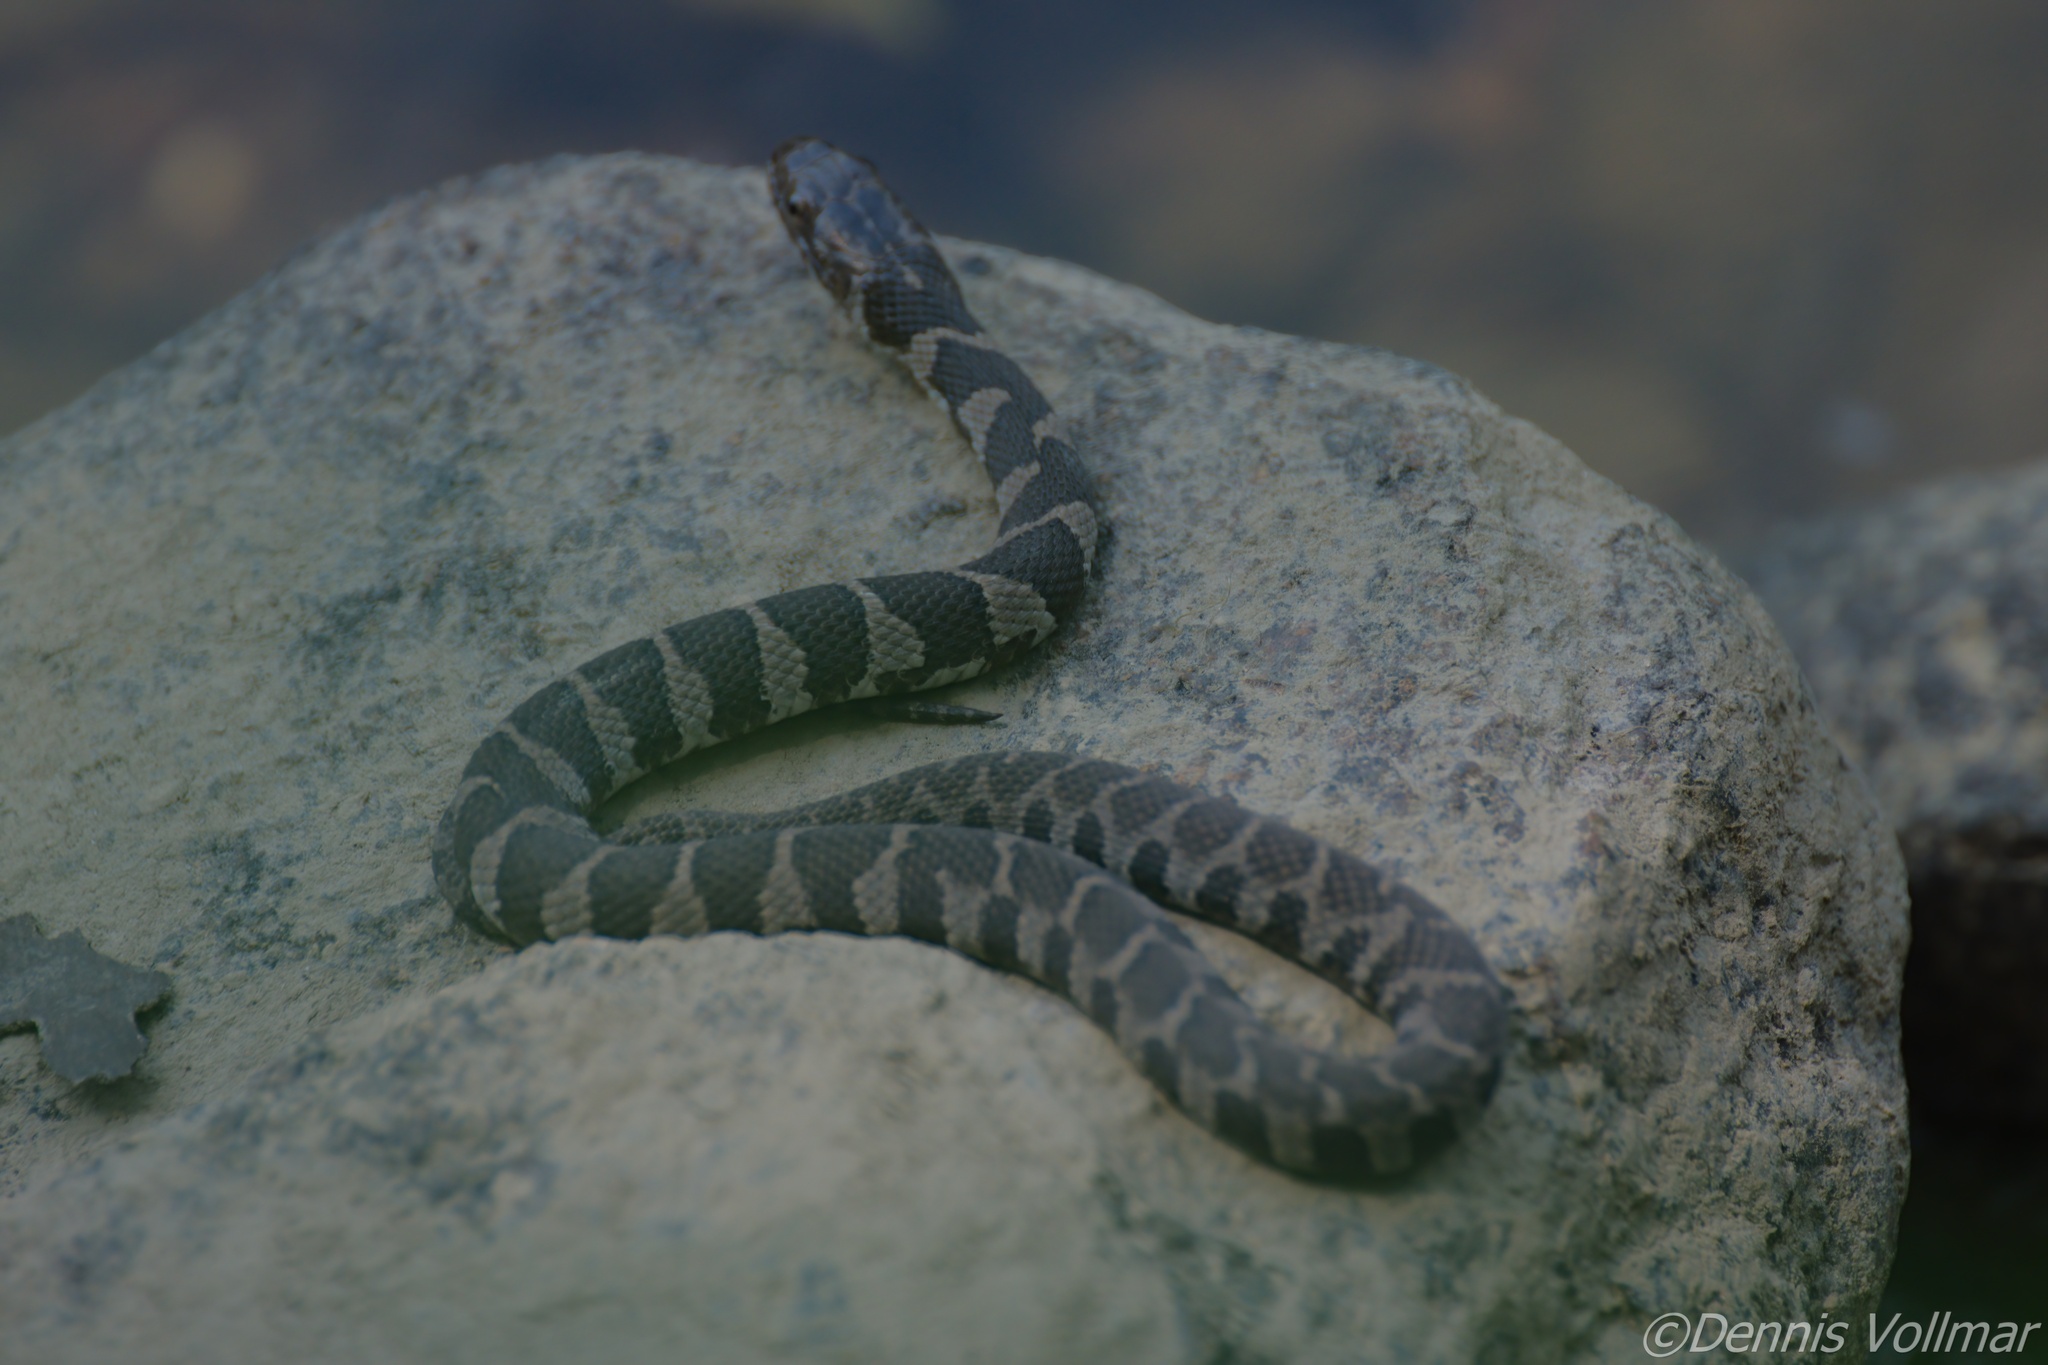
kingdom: Animalia
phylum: Chordata
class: Squamata
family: Colubridae
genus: Nerodia
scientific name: Nerodia sipedon
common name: Northern water snake
